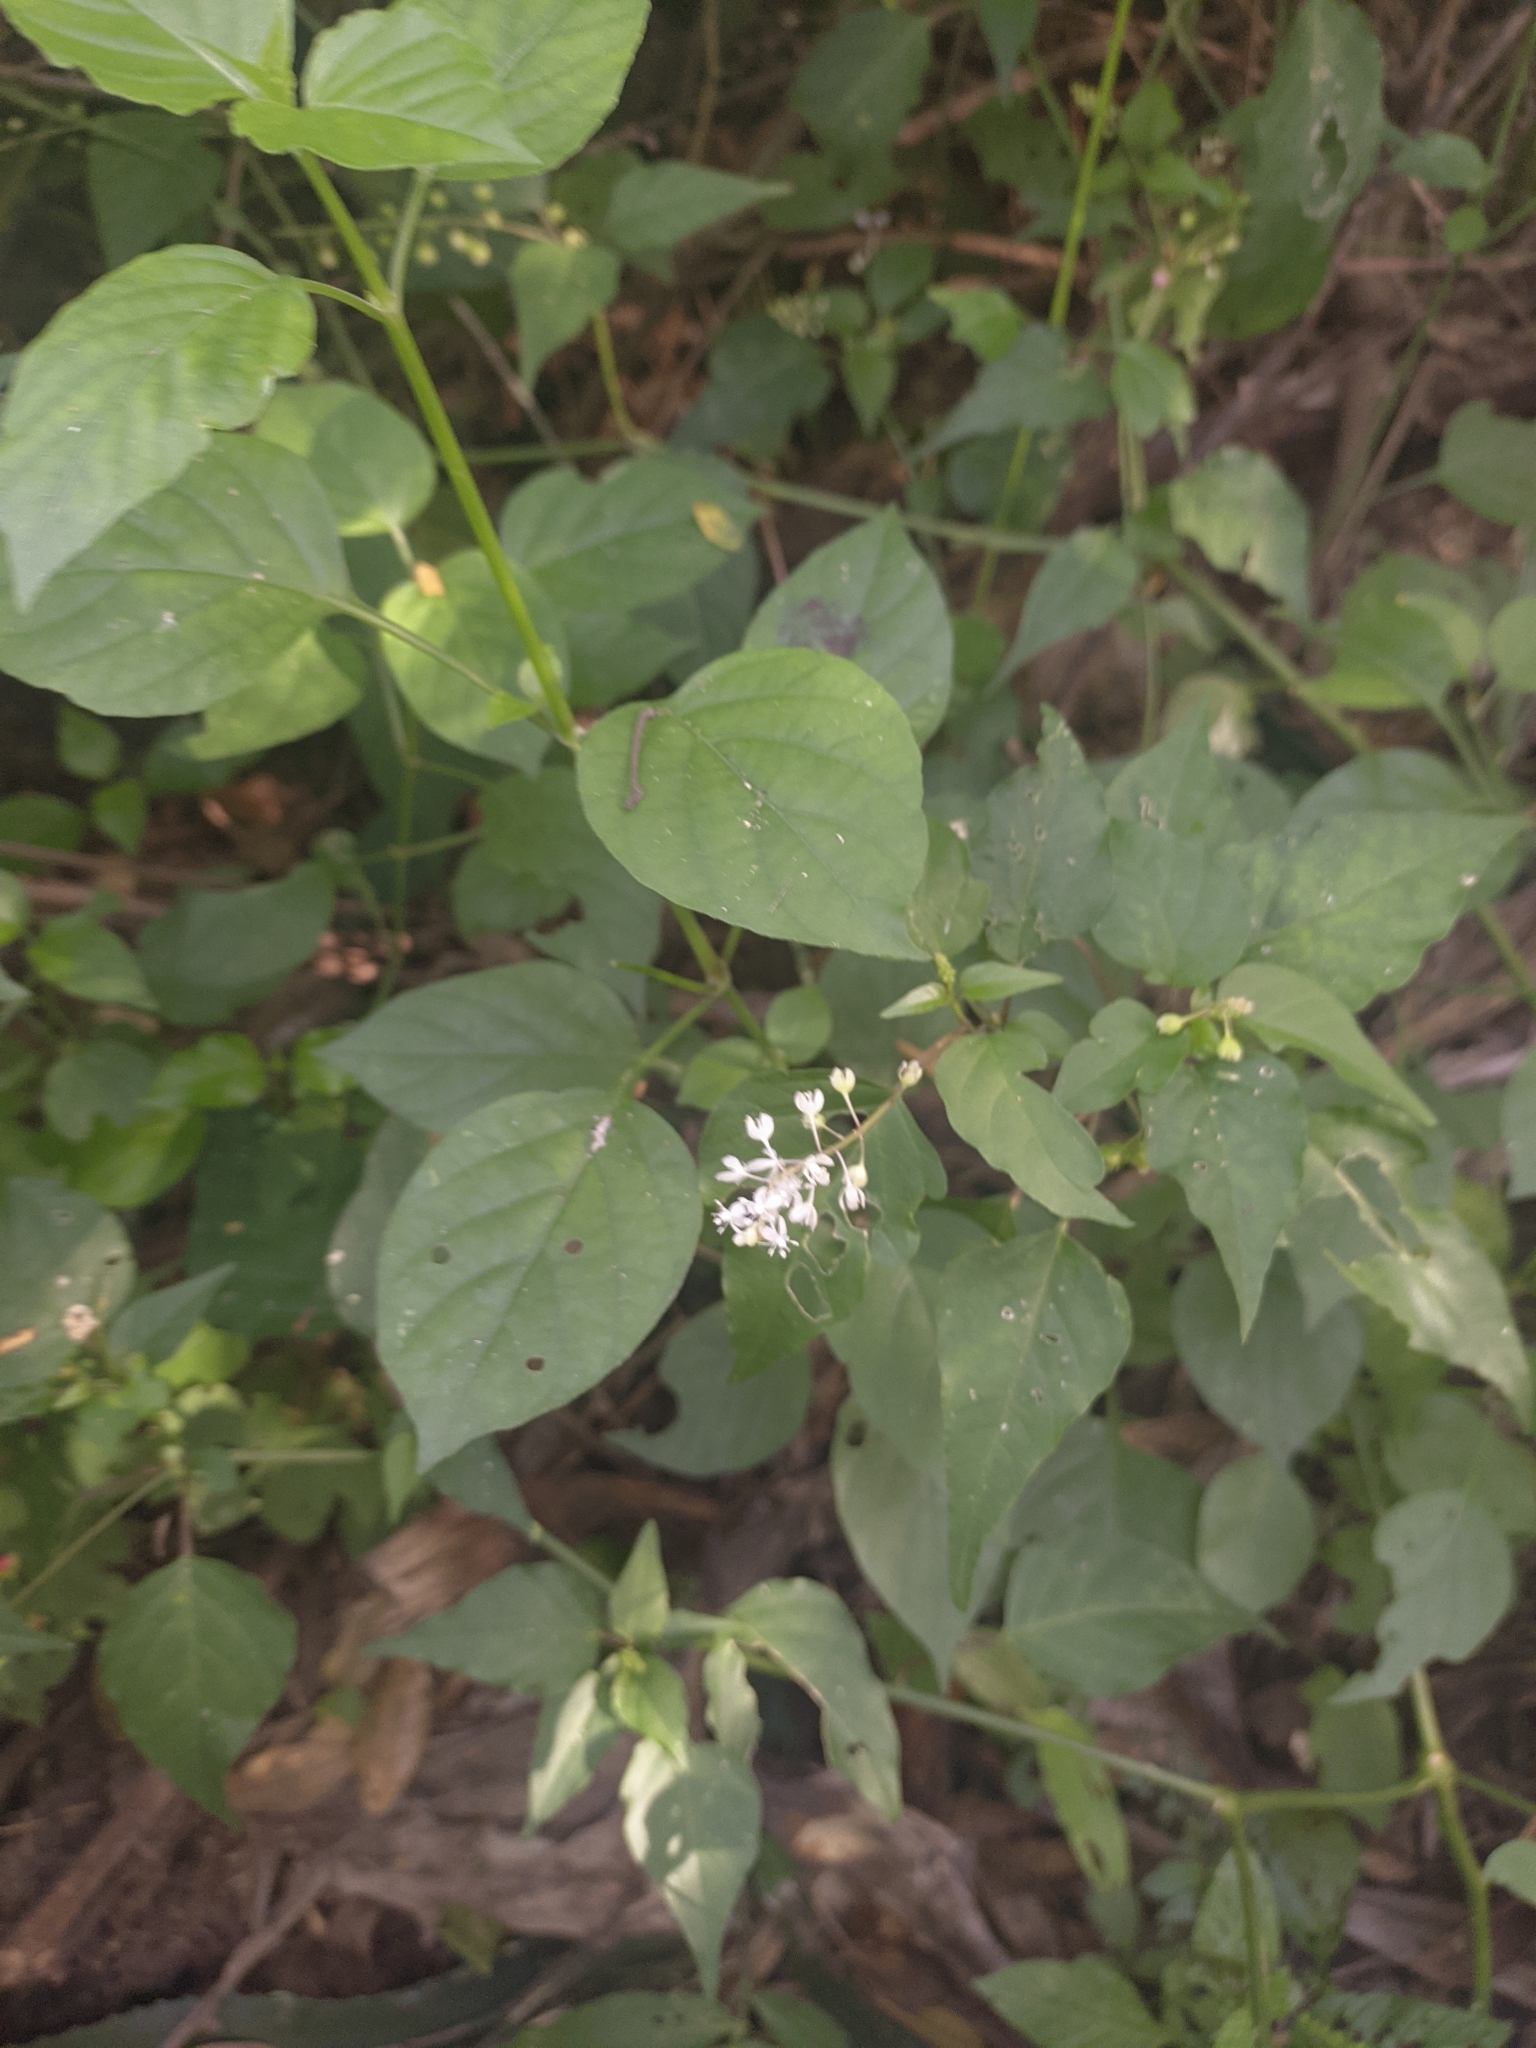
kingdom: Plantae
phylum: Tracheophyta
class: Magnoliopsida
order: Caryophyllales
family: Phytolaccaceae
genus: Rivina
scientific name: Rivina humilis
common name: Rougeplant
